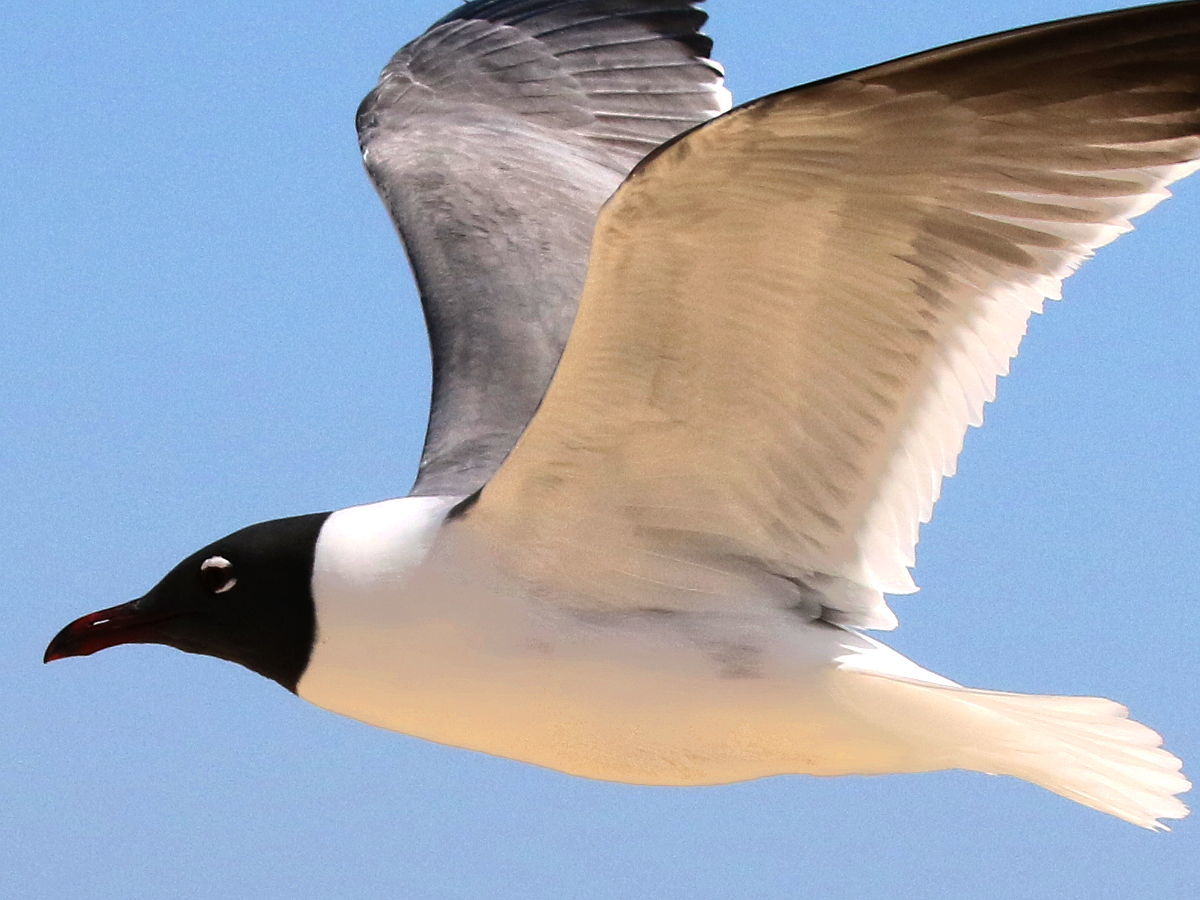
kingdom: Animalia
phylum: Chordata
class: Aves
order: Charadriiformes
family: Laridae
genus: Leucophaeus
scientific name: Leucophaeus atricilla
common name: Laughing gull
